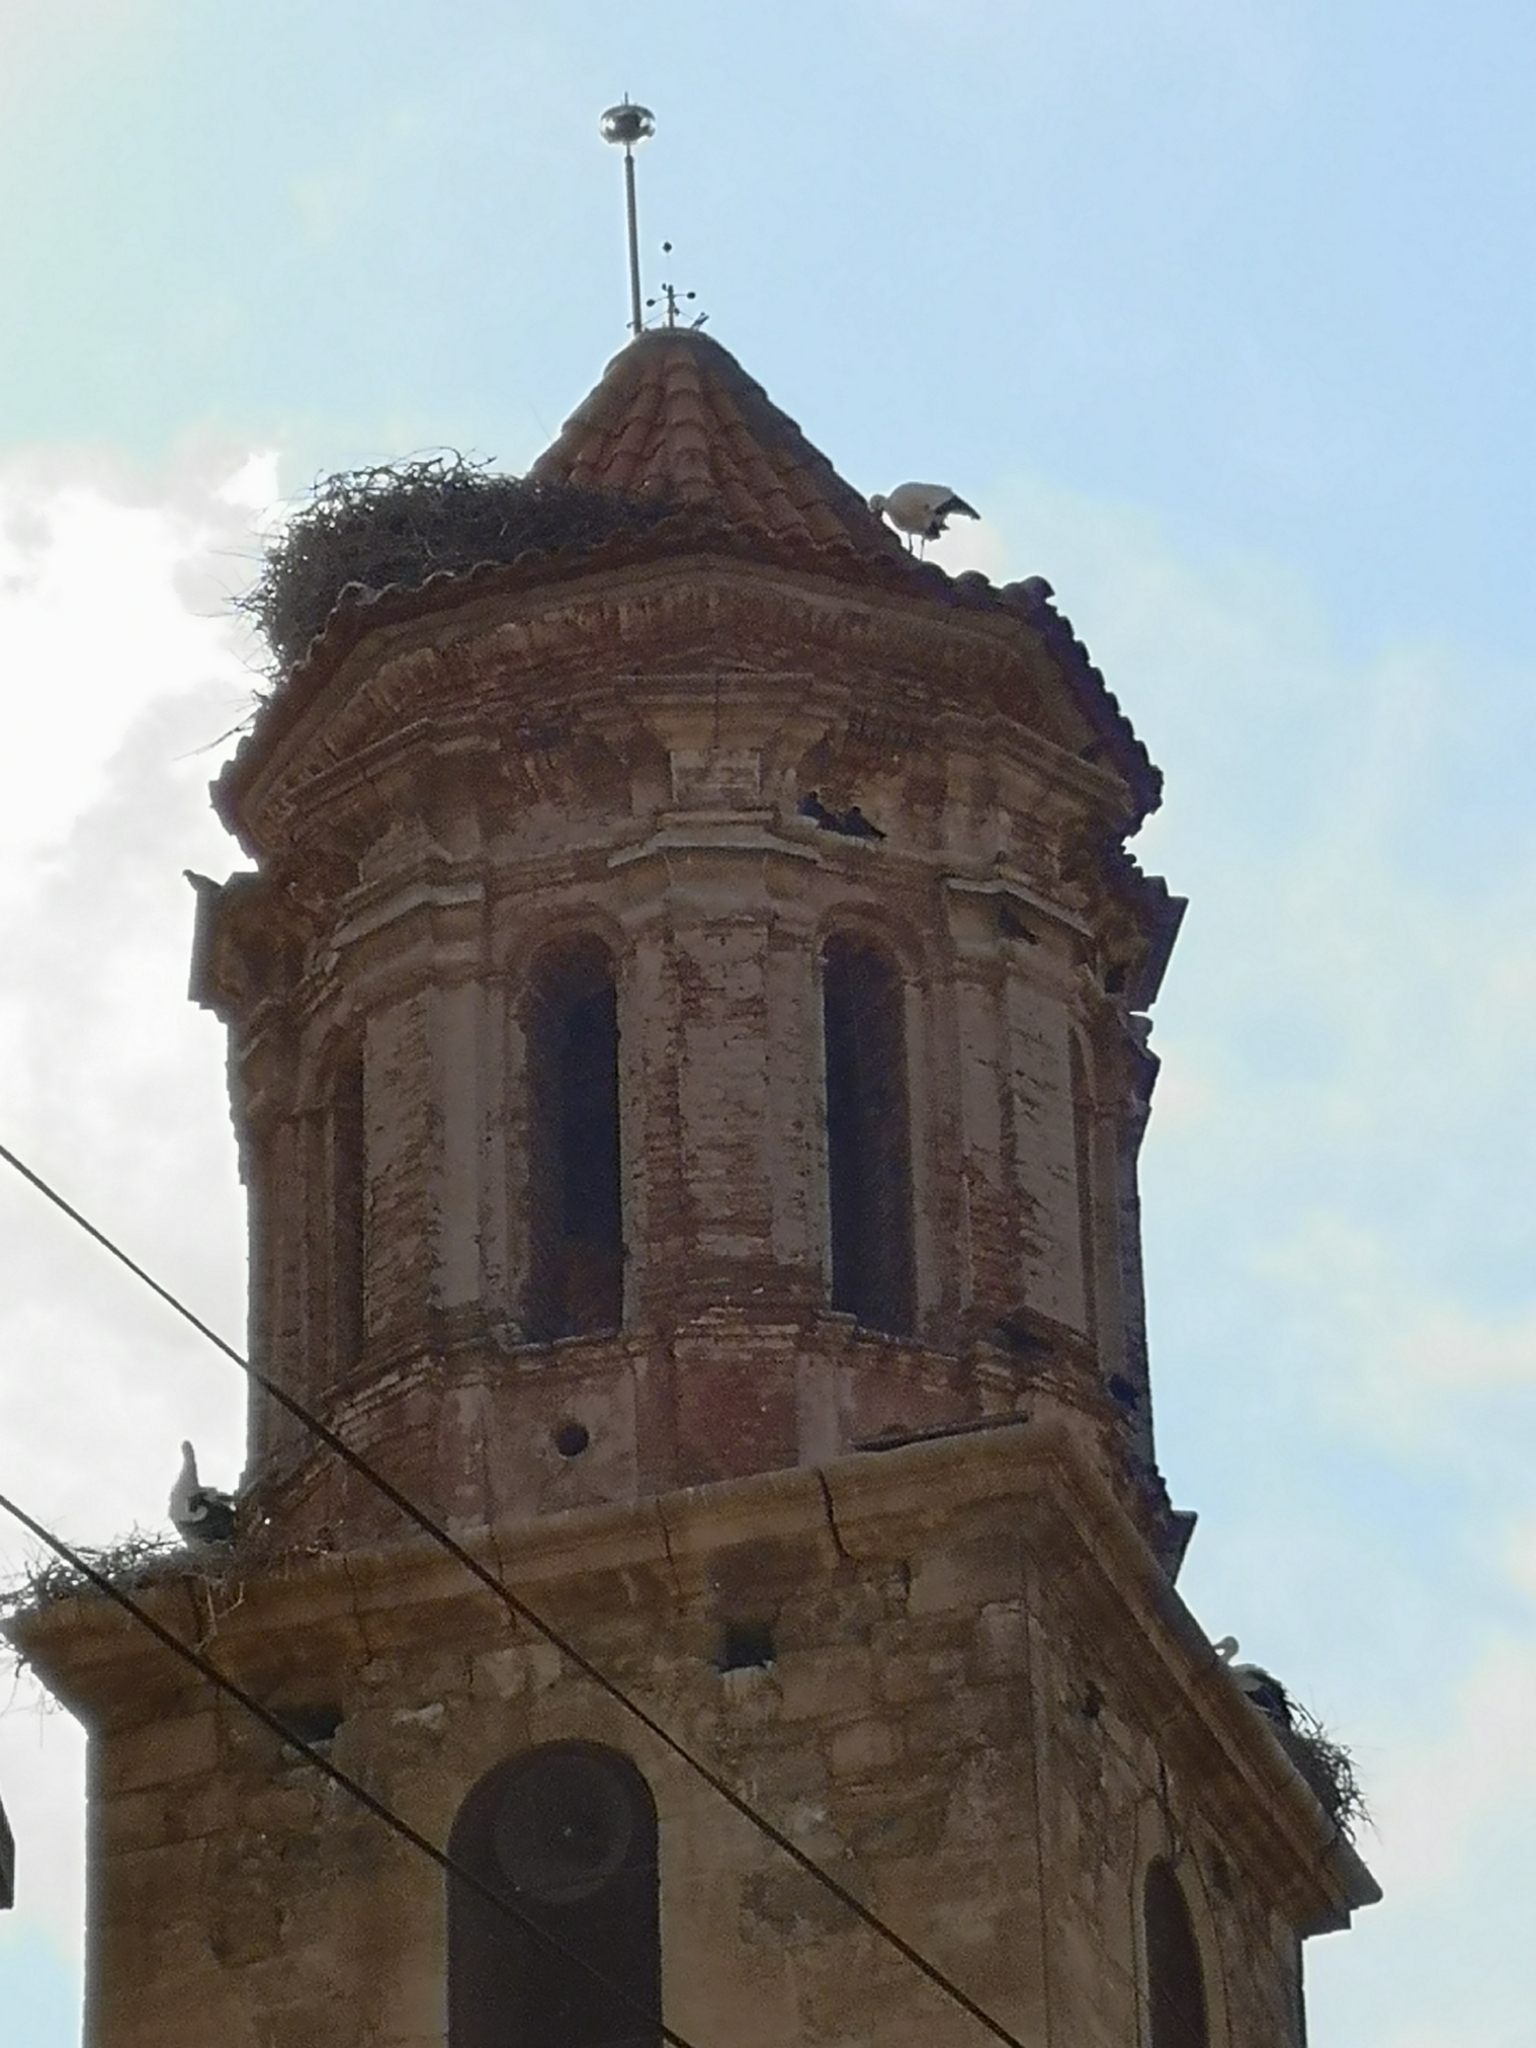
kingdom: Animalia
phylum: Chordata
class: Aves
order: Ciconiiformes
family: Ciconiidae
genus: Ciconia
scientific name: Ciconia ciconia
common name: White stork
